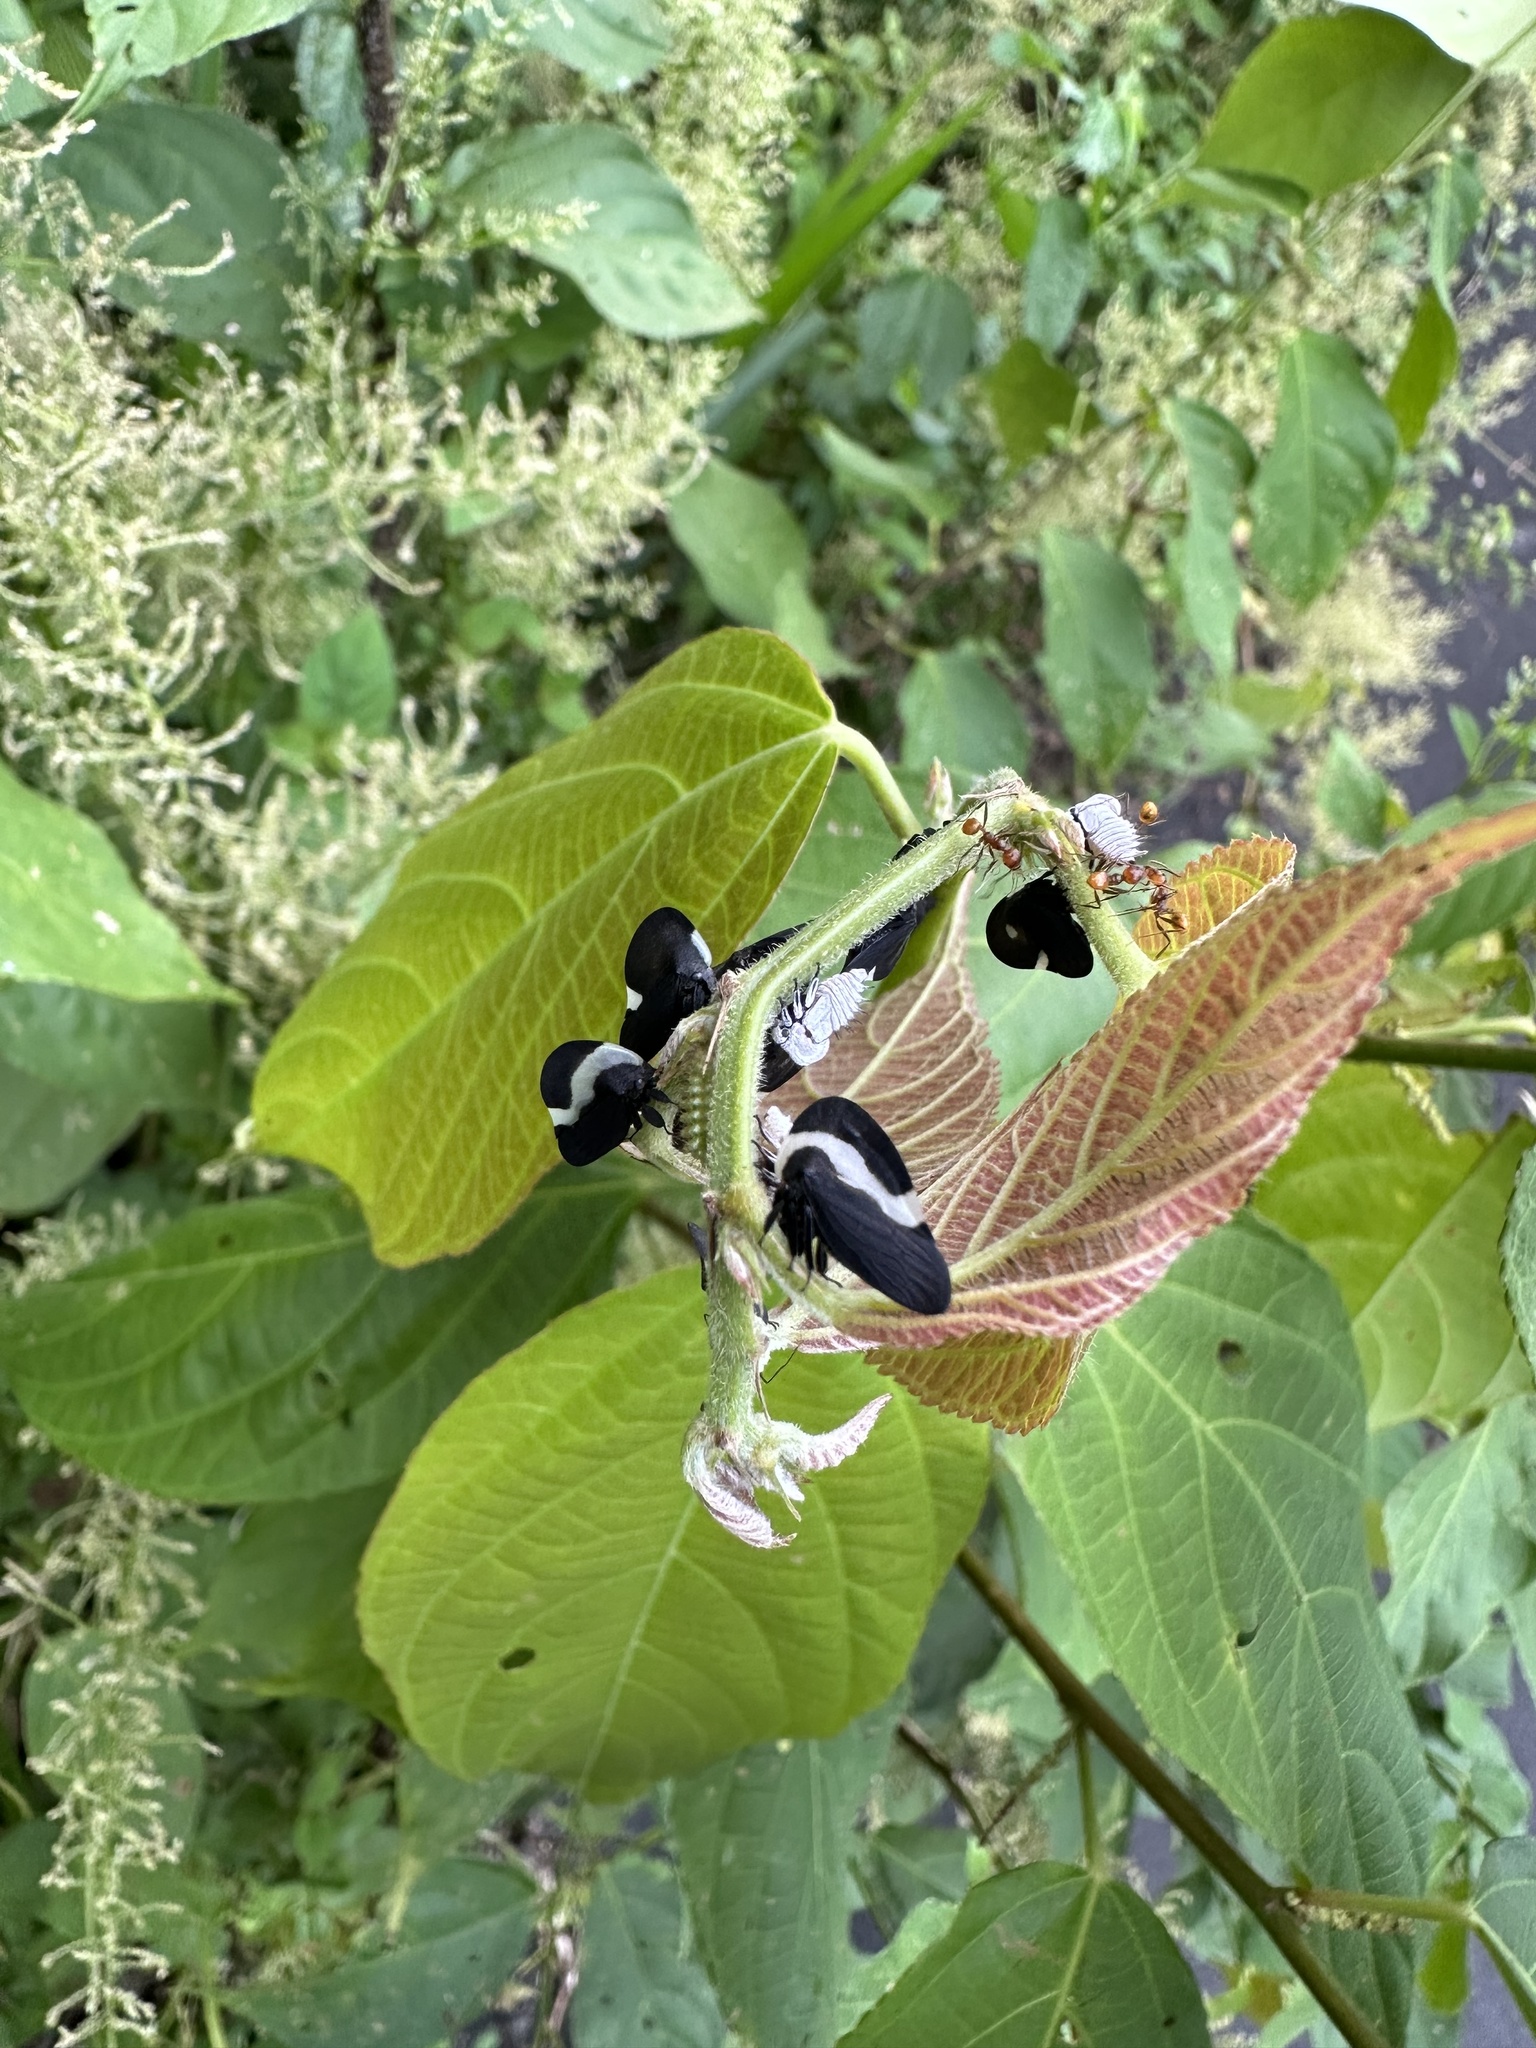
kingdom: Animalia
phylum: Arthropoda
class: Insecta
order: Hemiptera
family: Membracidae
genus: Membracis
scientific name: Membracis tectigera
